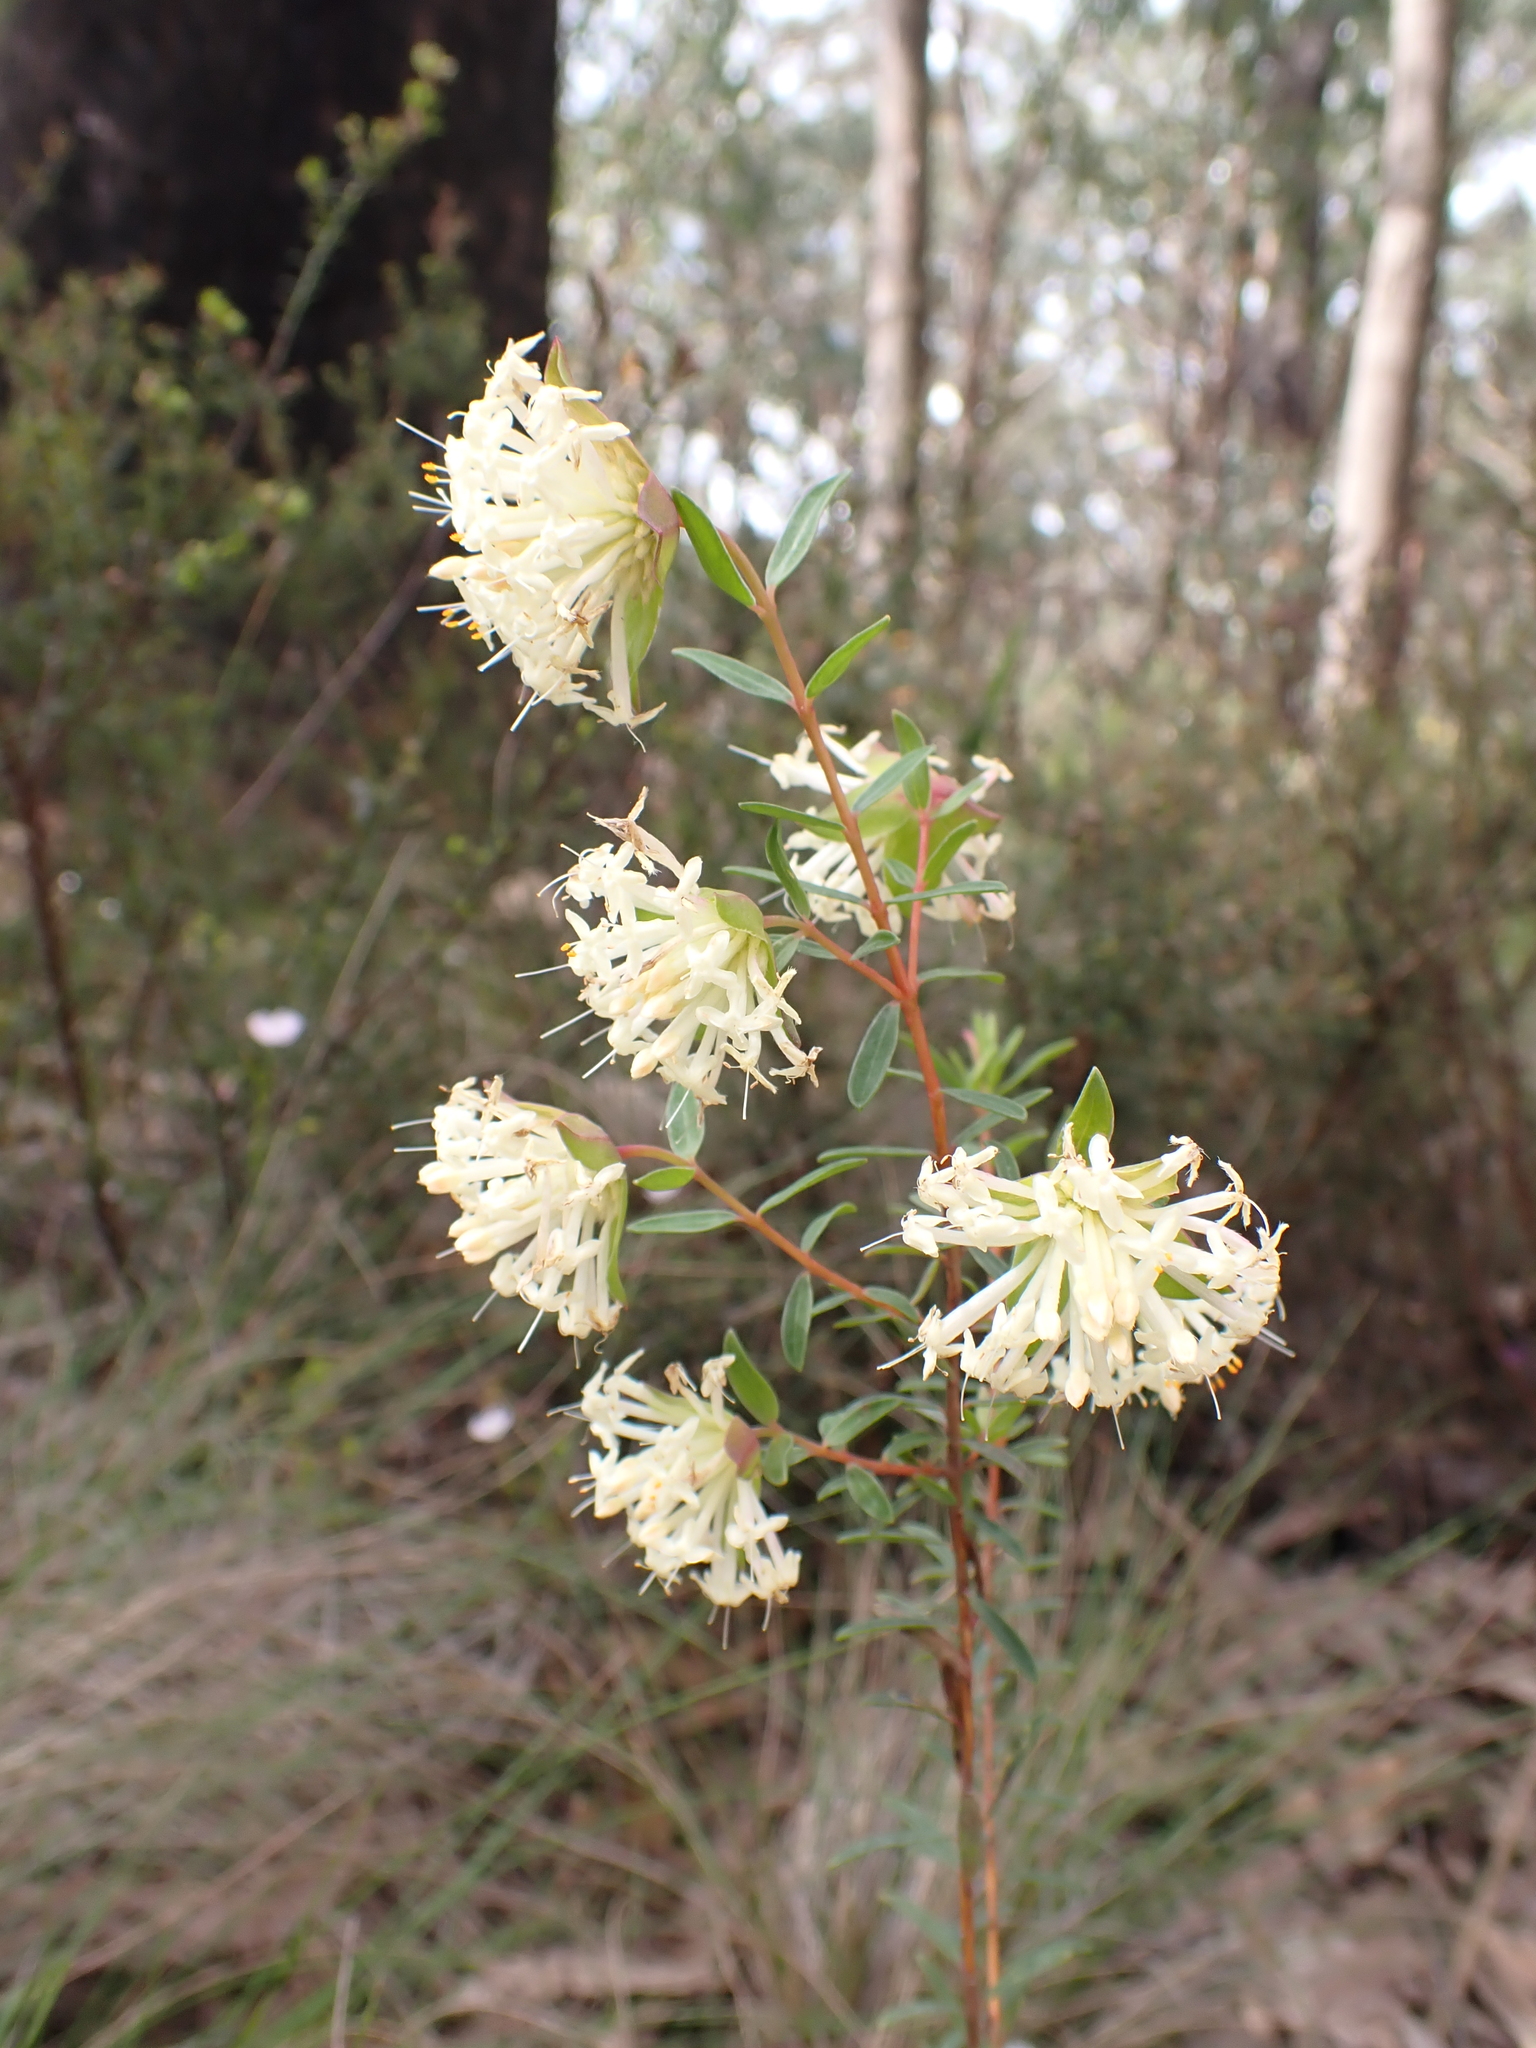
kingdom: Plantae
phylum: Tracheophyta
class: Magnoliopsida
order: Malvales
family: Thymelaeaceae
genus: Pimelea
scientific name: Pimelea linifolia
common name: Queen-of-the-bush
